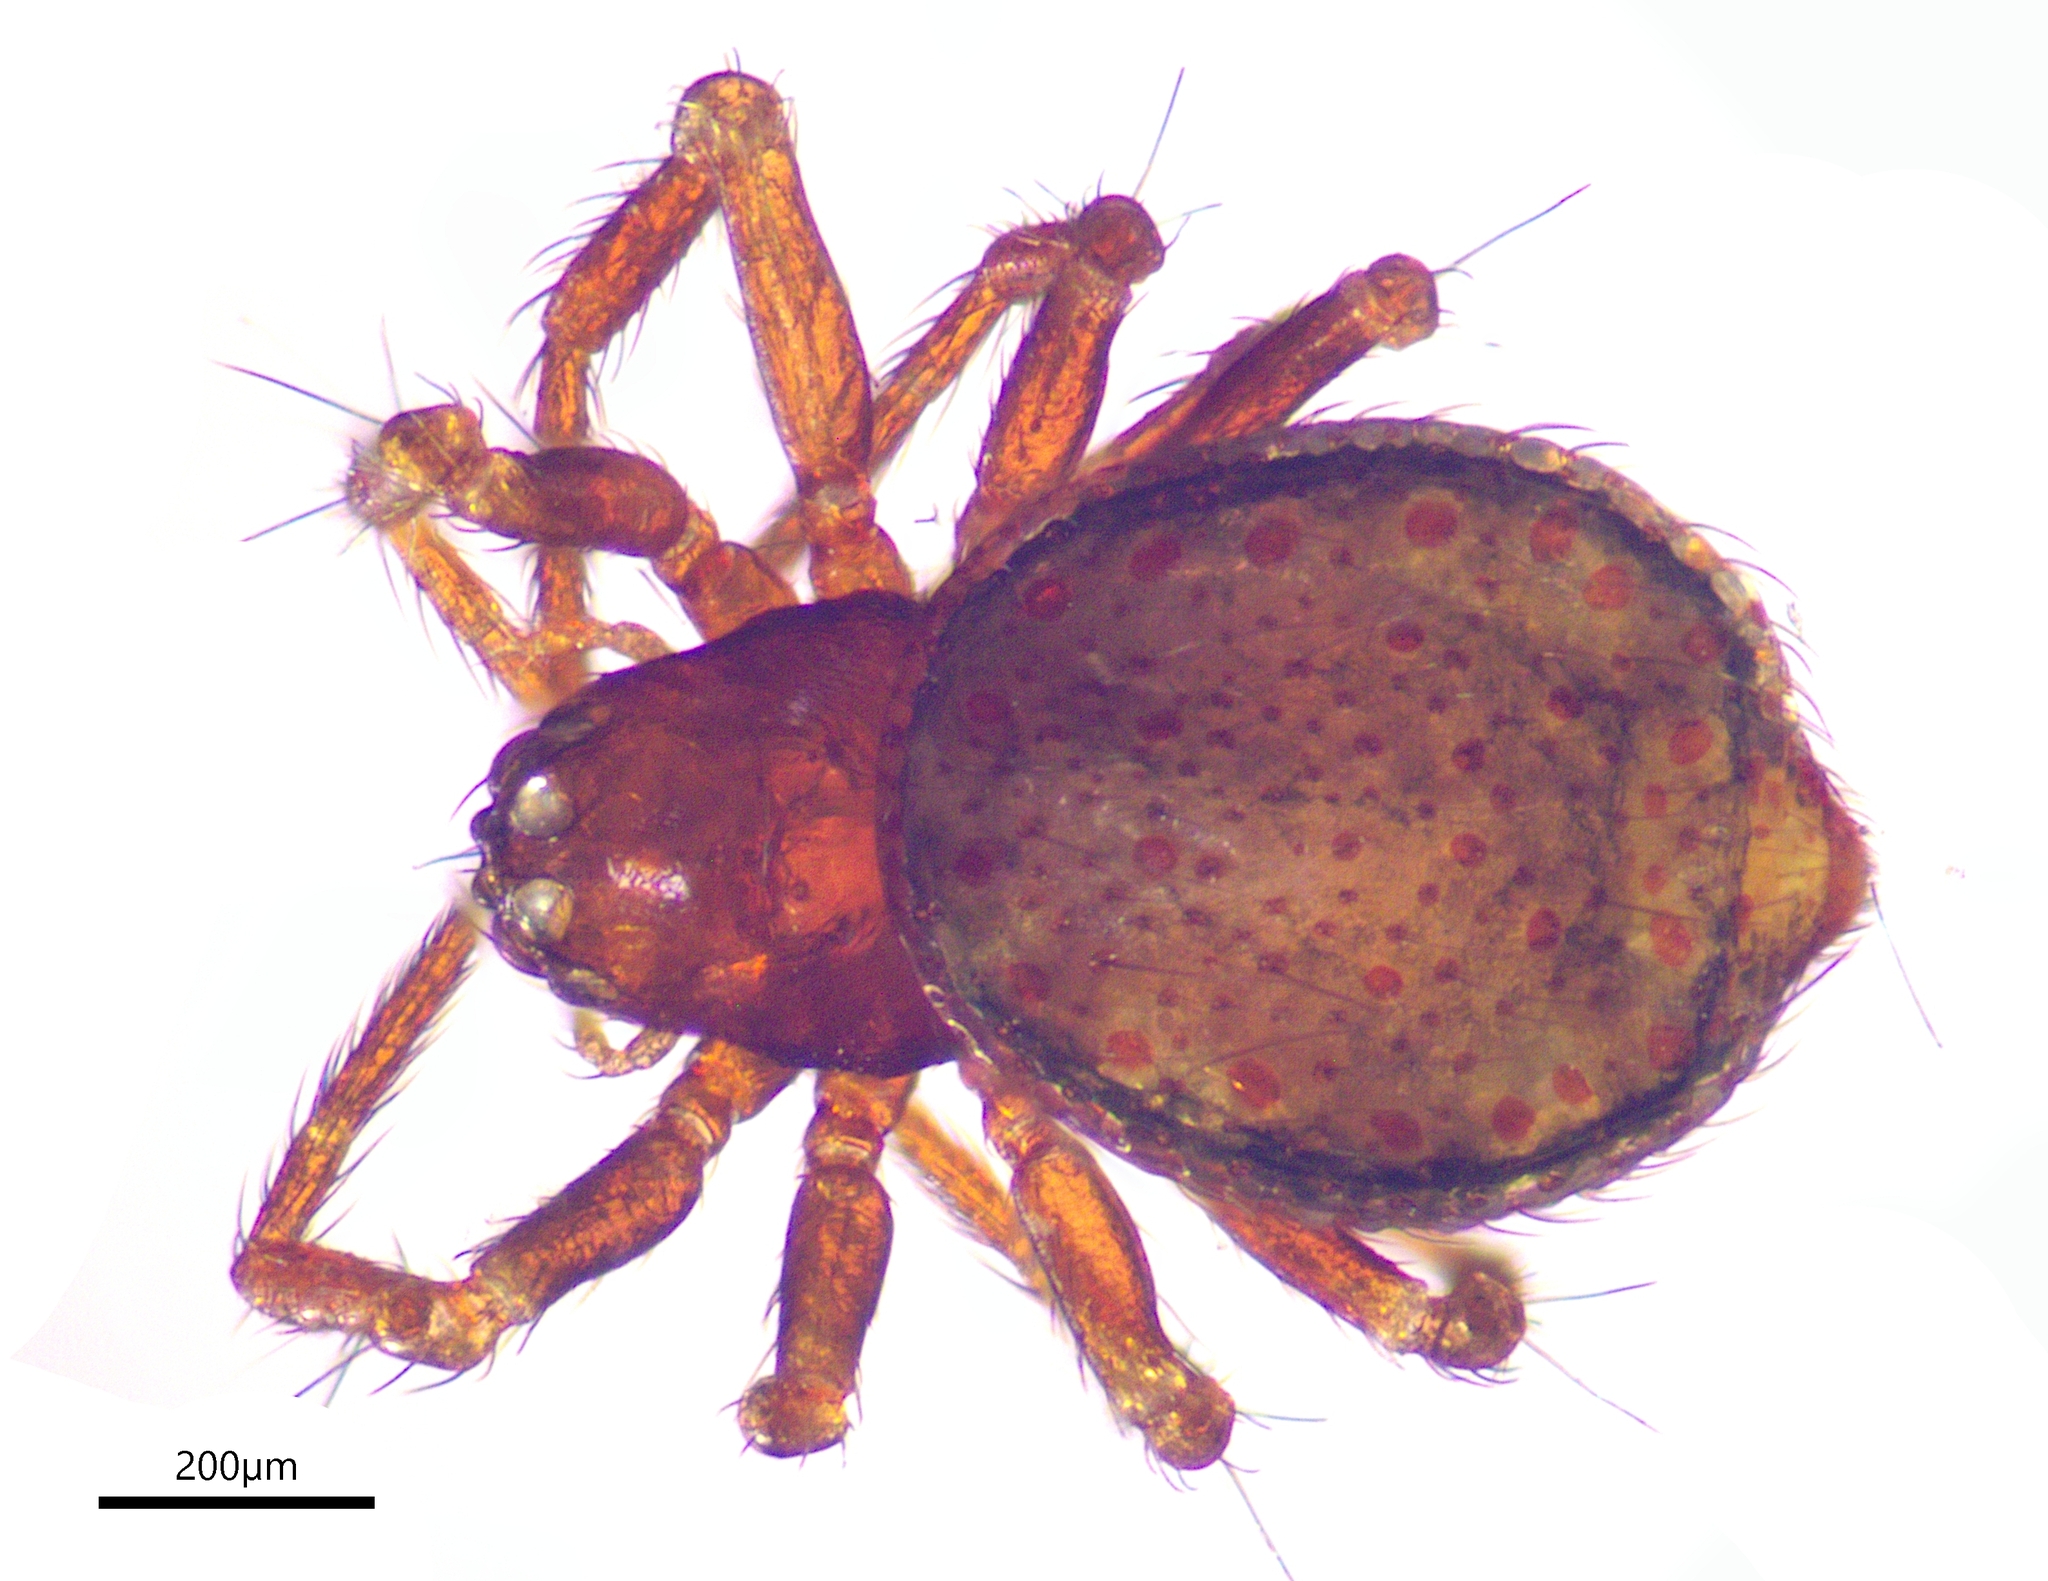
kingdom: Animalia
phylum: Arthropoda
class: Arachnida
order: Araneae
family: Anapidae
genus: Queenslanapis
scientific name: Queenslanapis lamington
